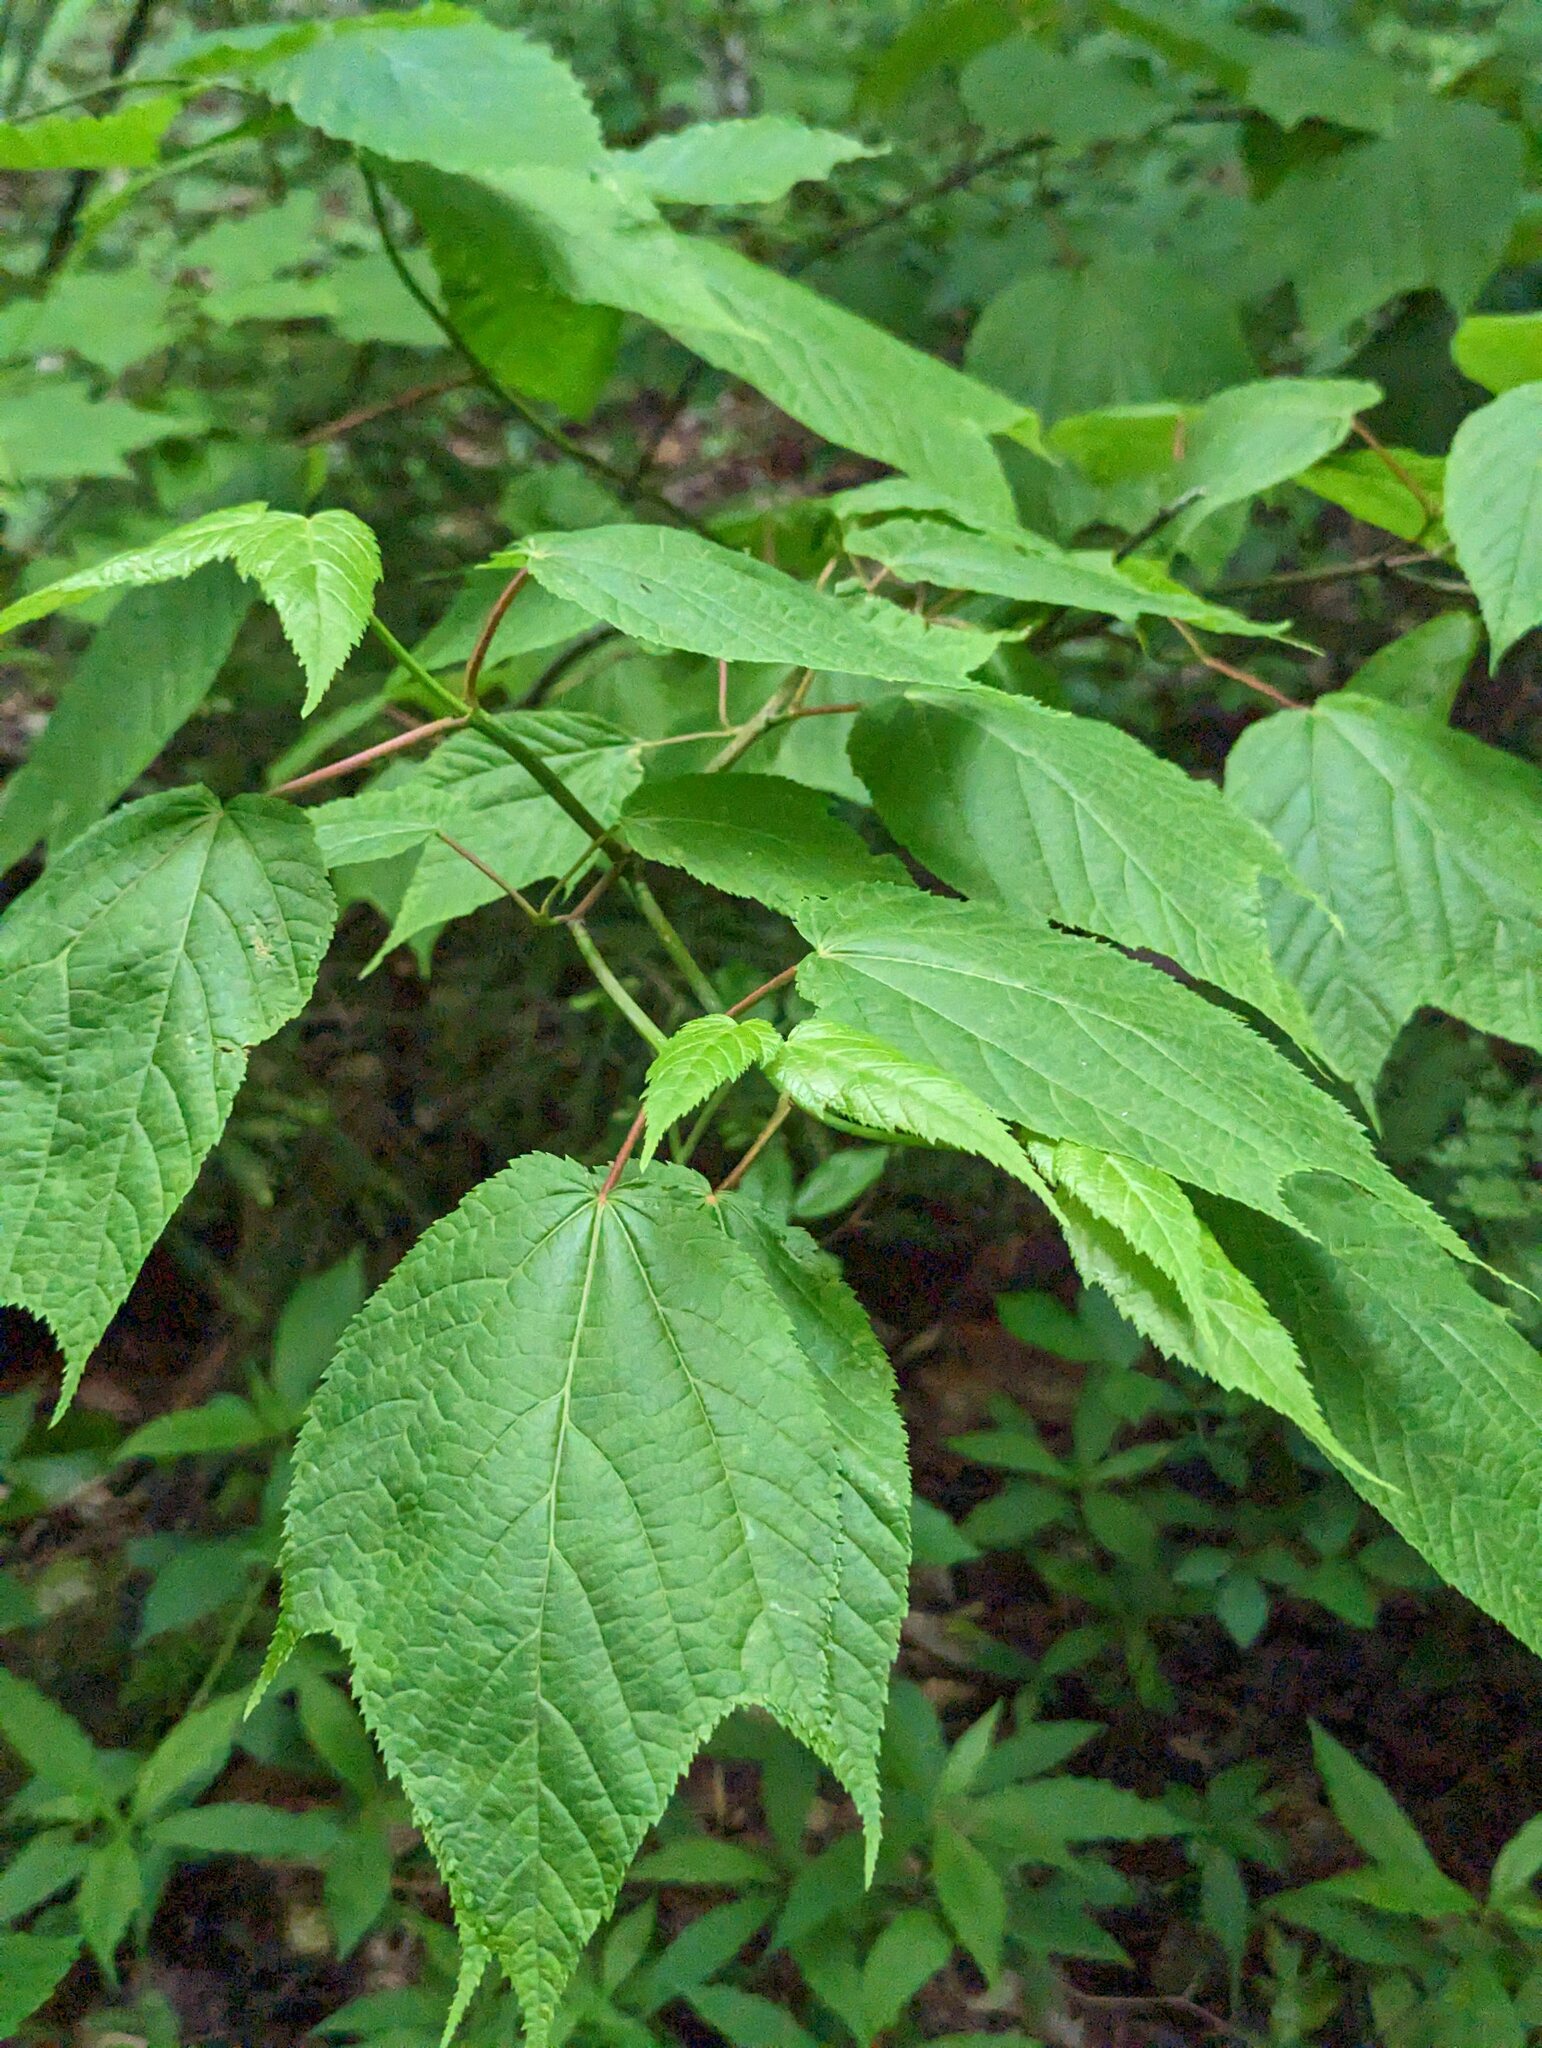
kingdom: Plantae
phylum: Tracheophyta
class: Magnoliopsida
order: Sapindales
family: Sapindaceae
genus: Acer
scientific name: Acer pensylvanicum
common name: Moosewood
